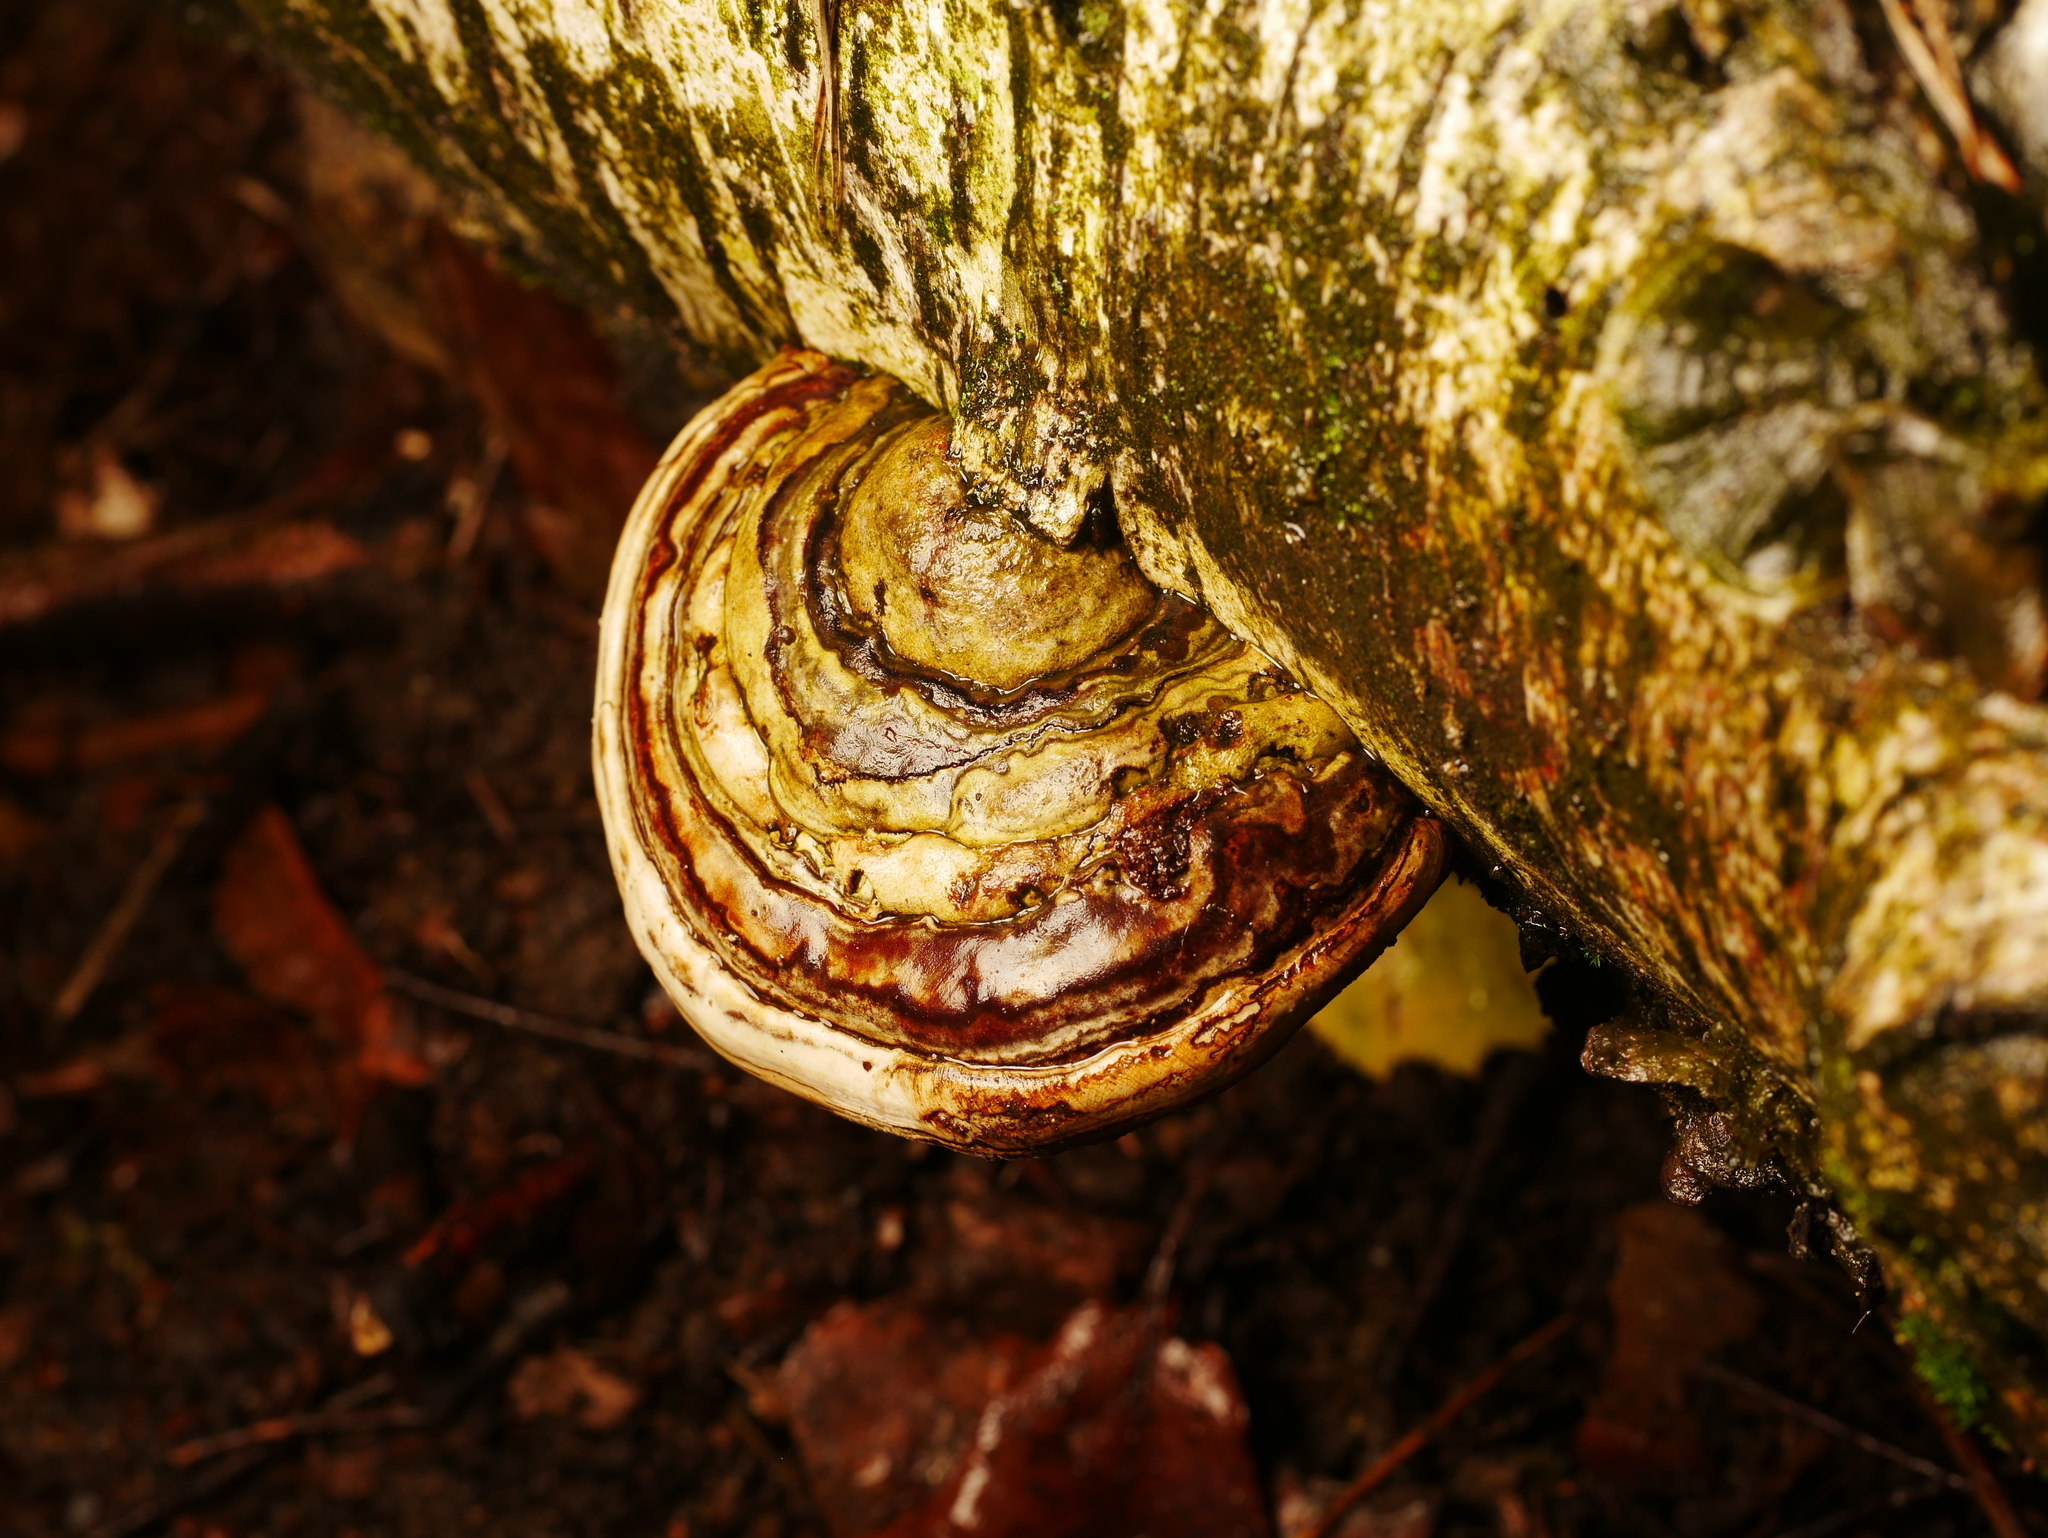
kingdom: Fungi
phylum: Basidiomycota
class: Agaricomycetes
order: Polyporales
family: Polyporaceae
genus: Fomes
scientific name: Fomes fomentarius
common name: Hoof fungus
